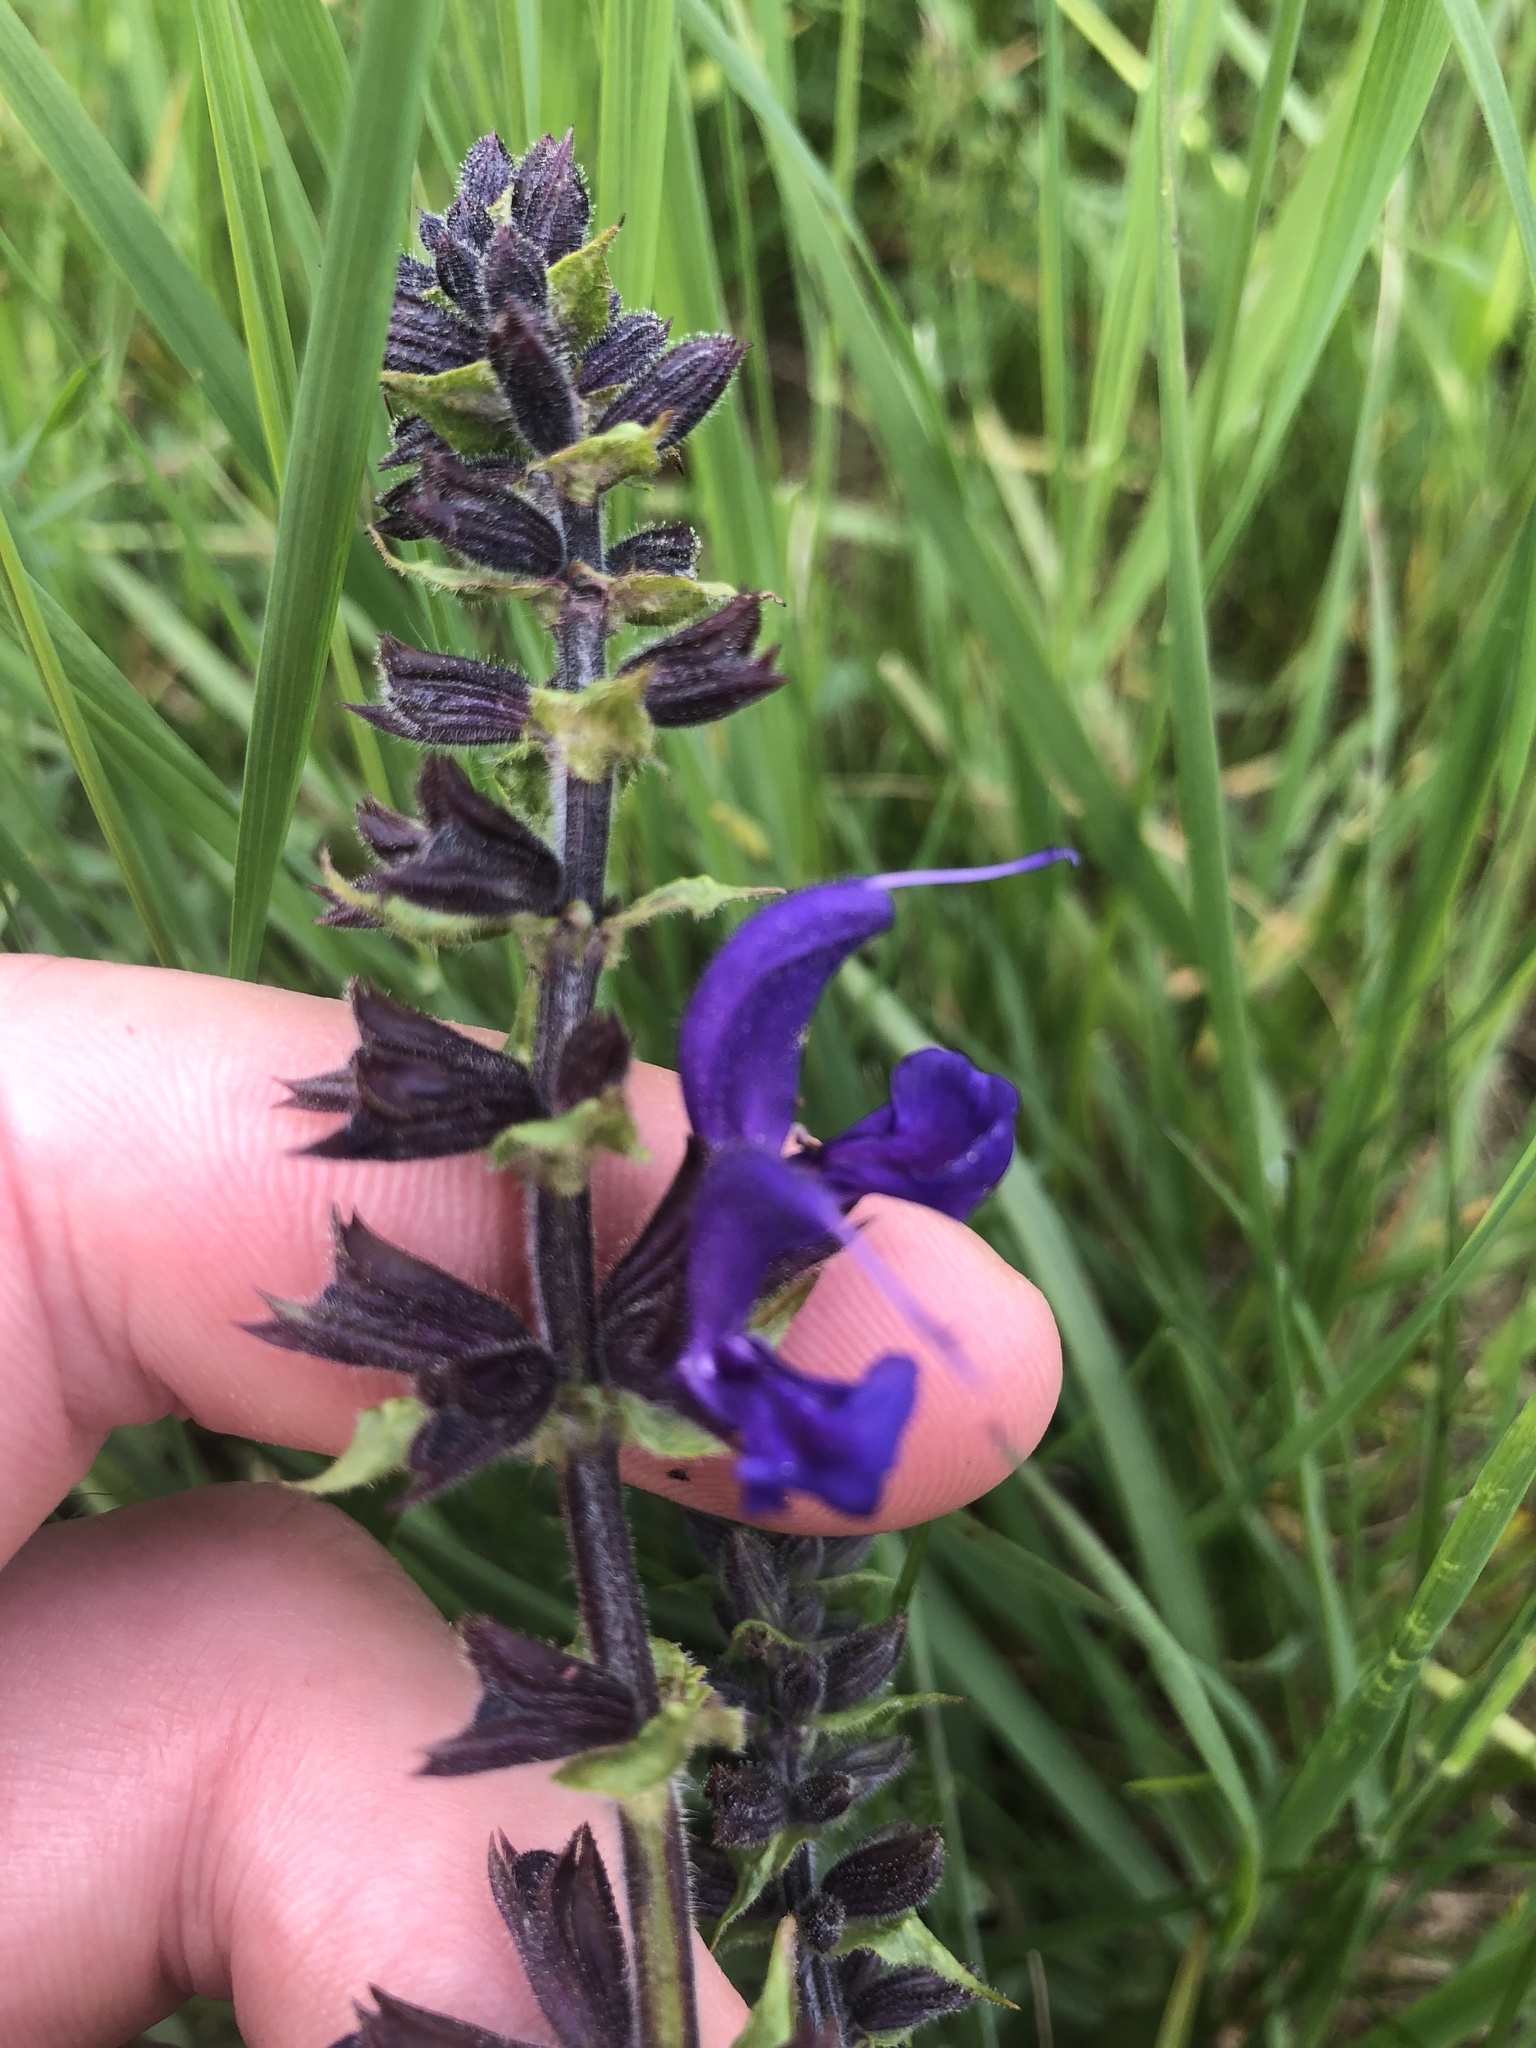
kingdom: Plantae
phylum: Tracheophyta
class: Magnoliopsida
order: Lamiales
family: Lamiaceae
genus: Salvia
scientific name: Salvia pratensis
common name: Meadow sage
